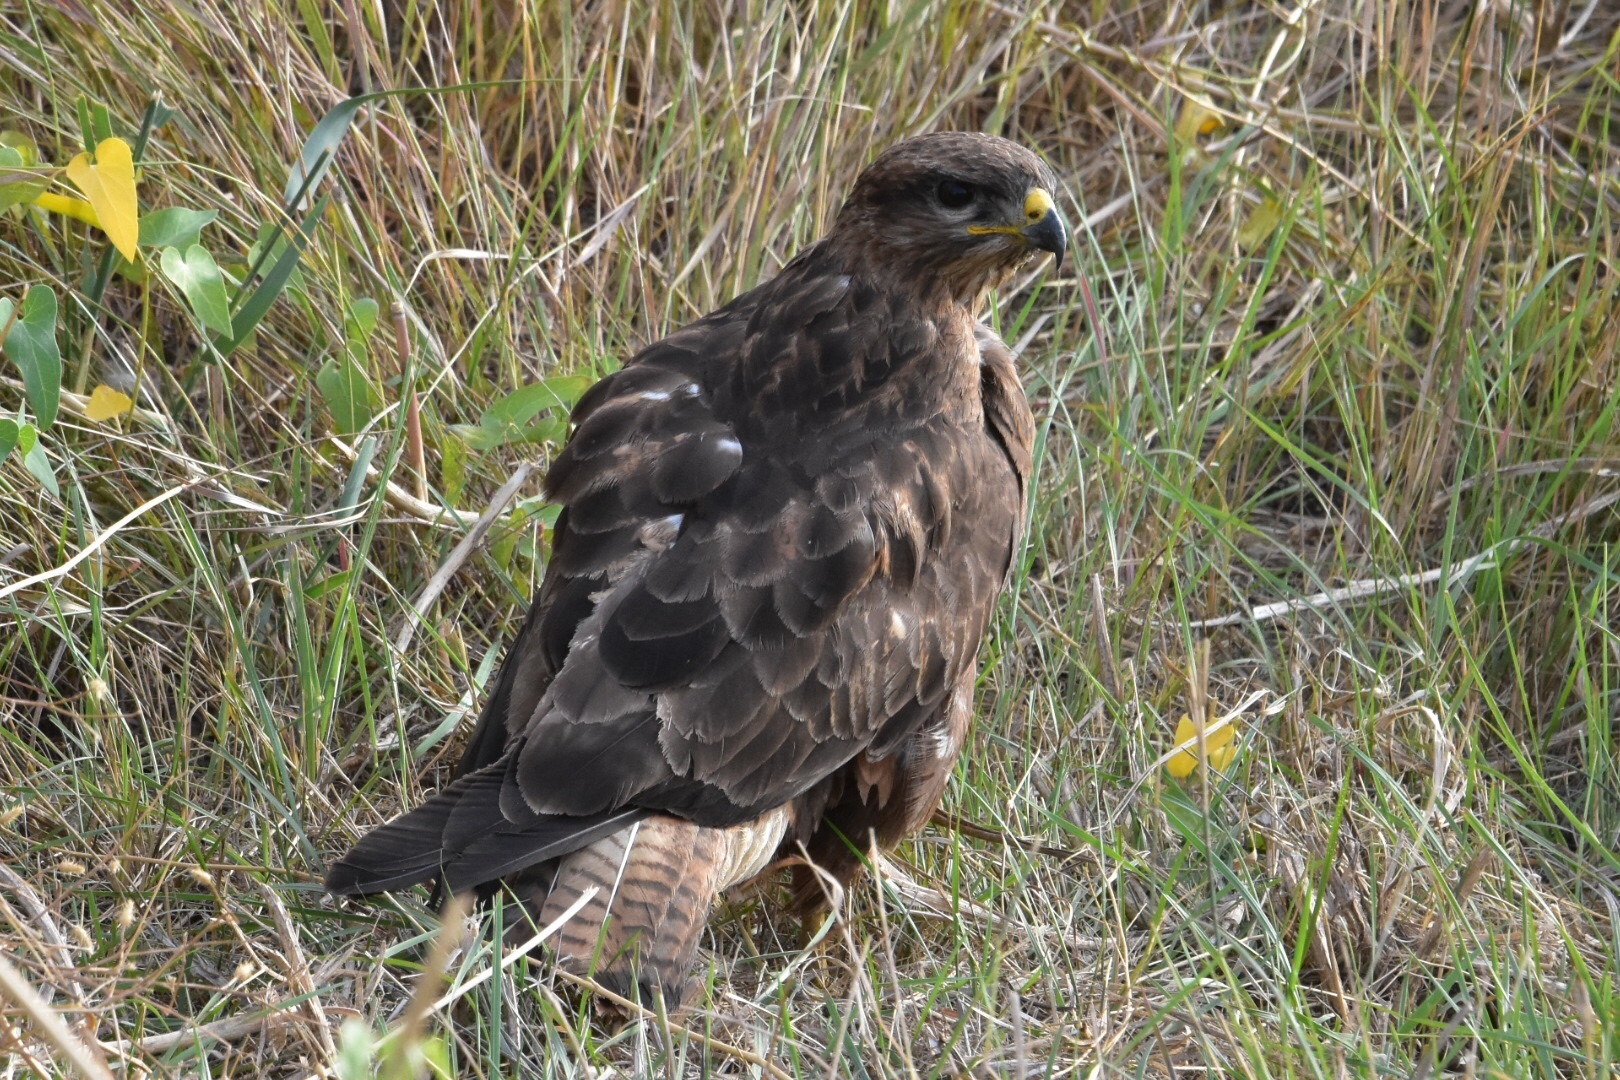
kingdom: Animalia
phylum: Chordata
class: Aves
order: Accipitriformes
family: Accipitridae
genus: Buteo
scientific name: Buteo buteo
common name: Common buzzard
